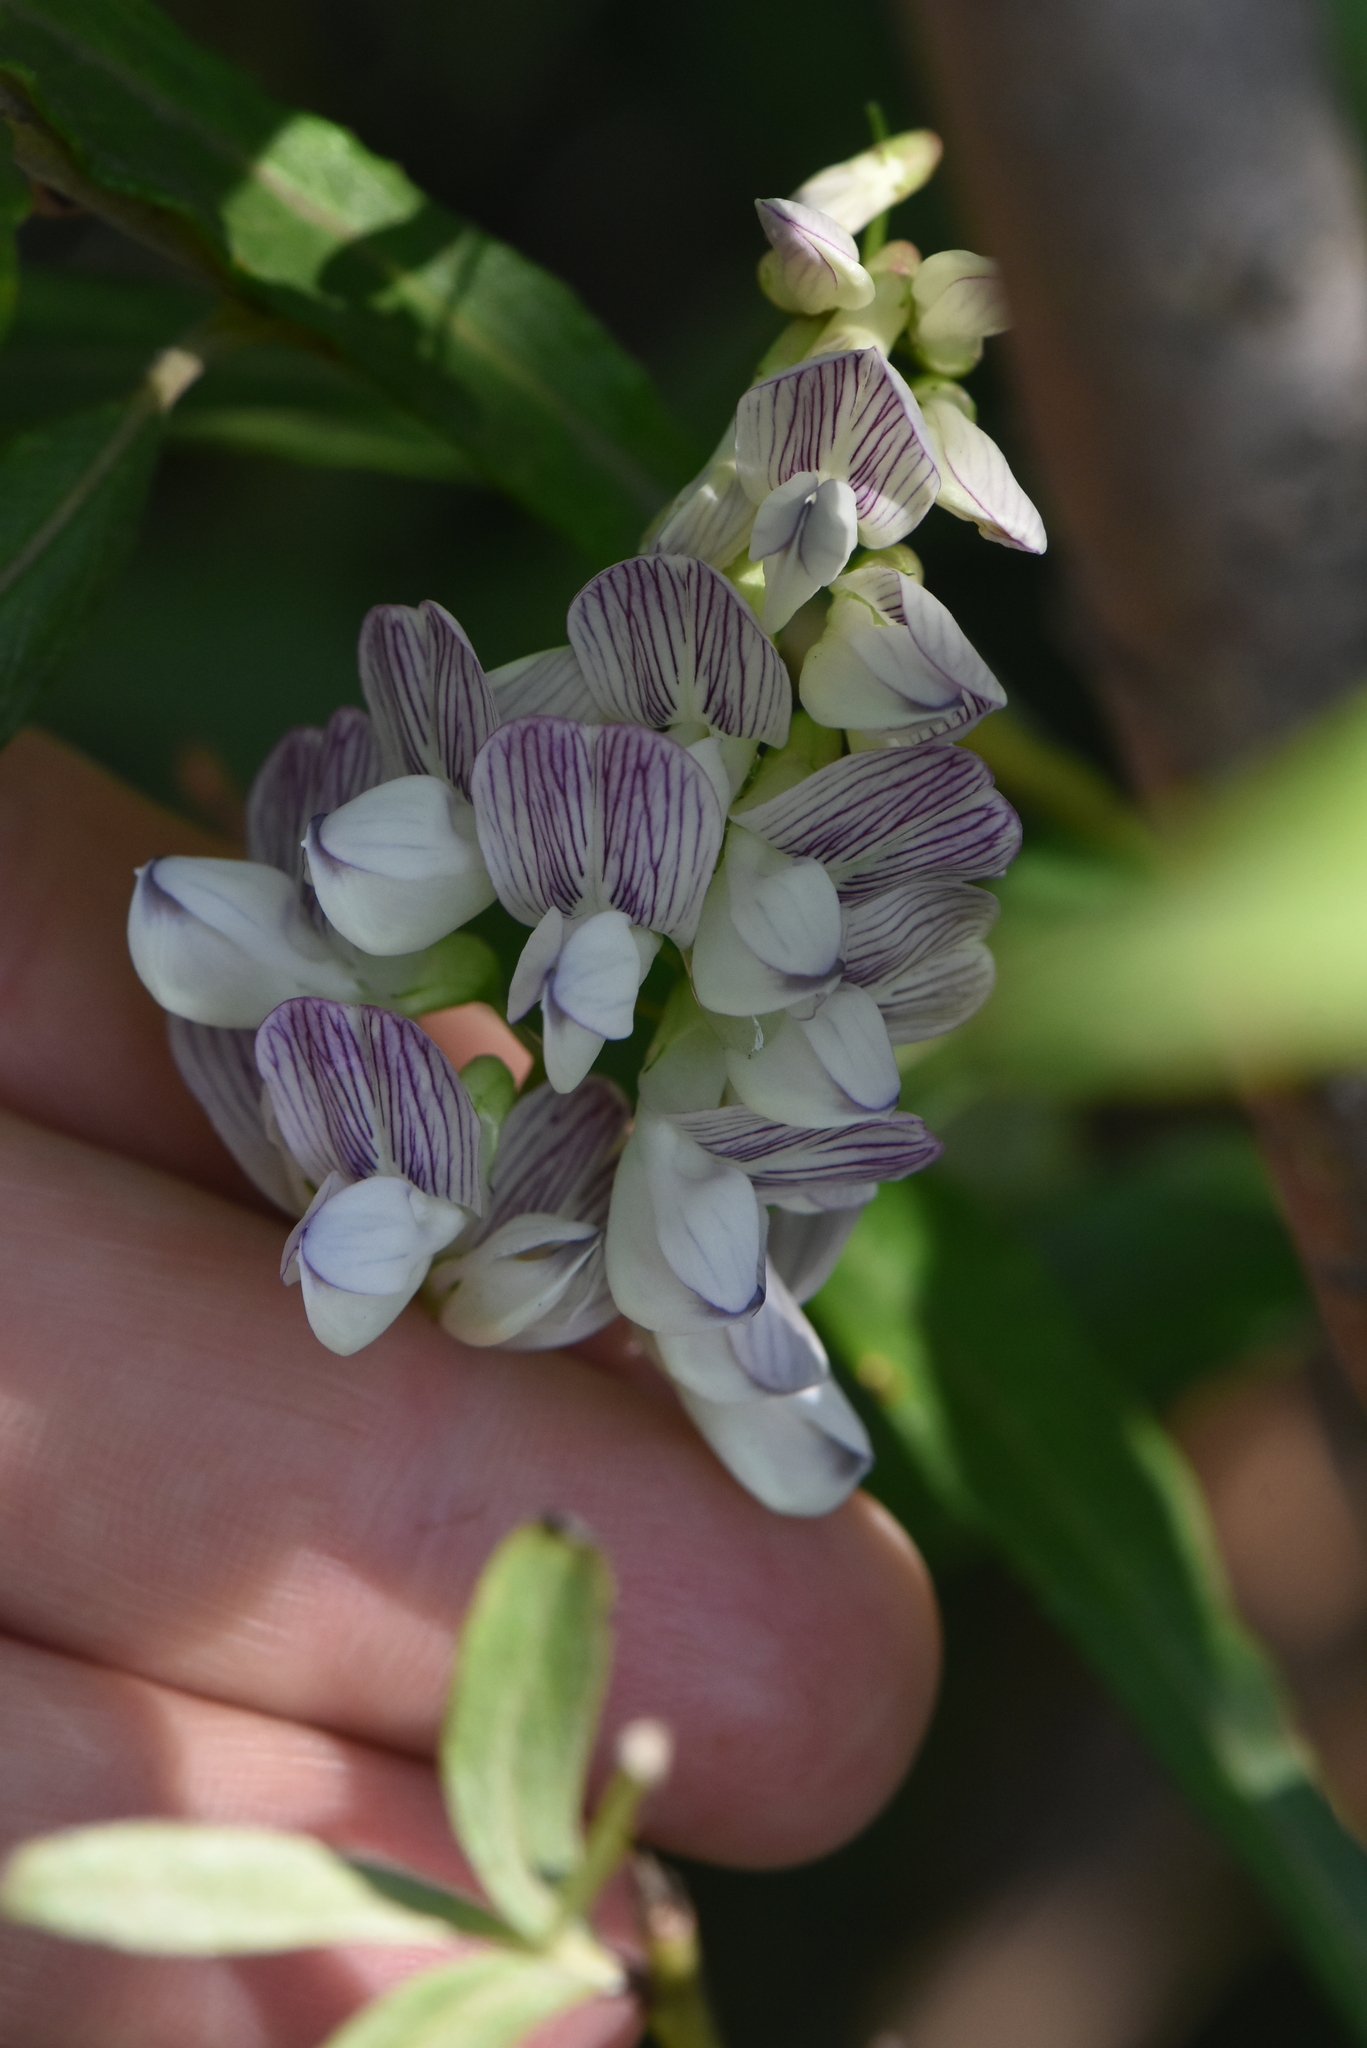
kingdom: Plantae
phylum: Tracheophyta
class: Magnoliopsida
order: Fabales
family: Fabaceae
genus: Vicia
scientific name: Vicia sylvatica
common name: Wood vetch
